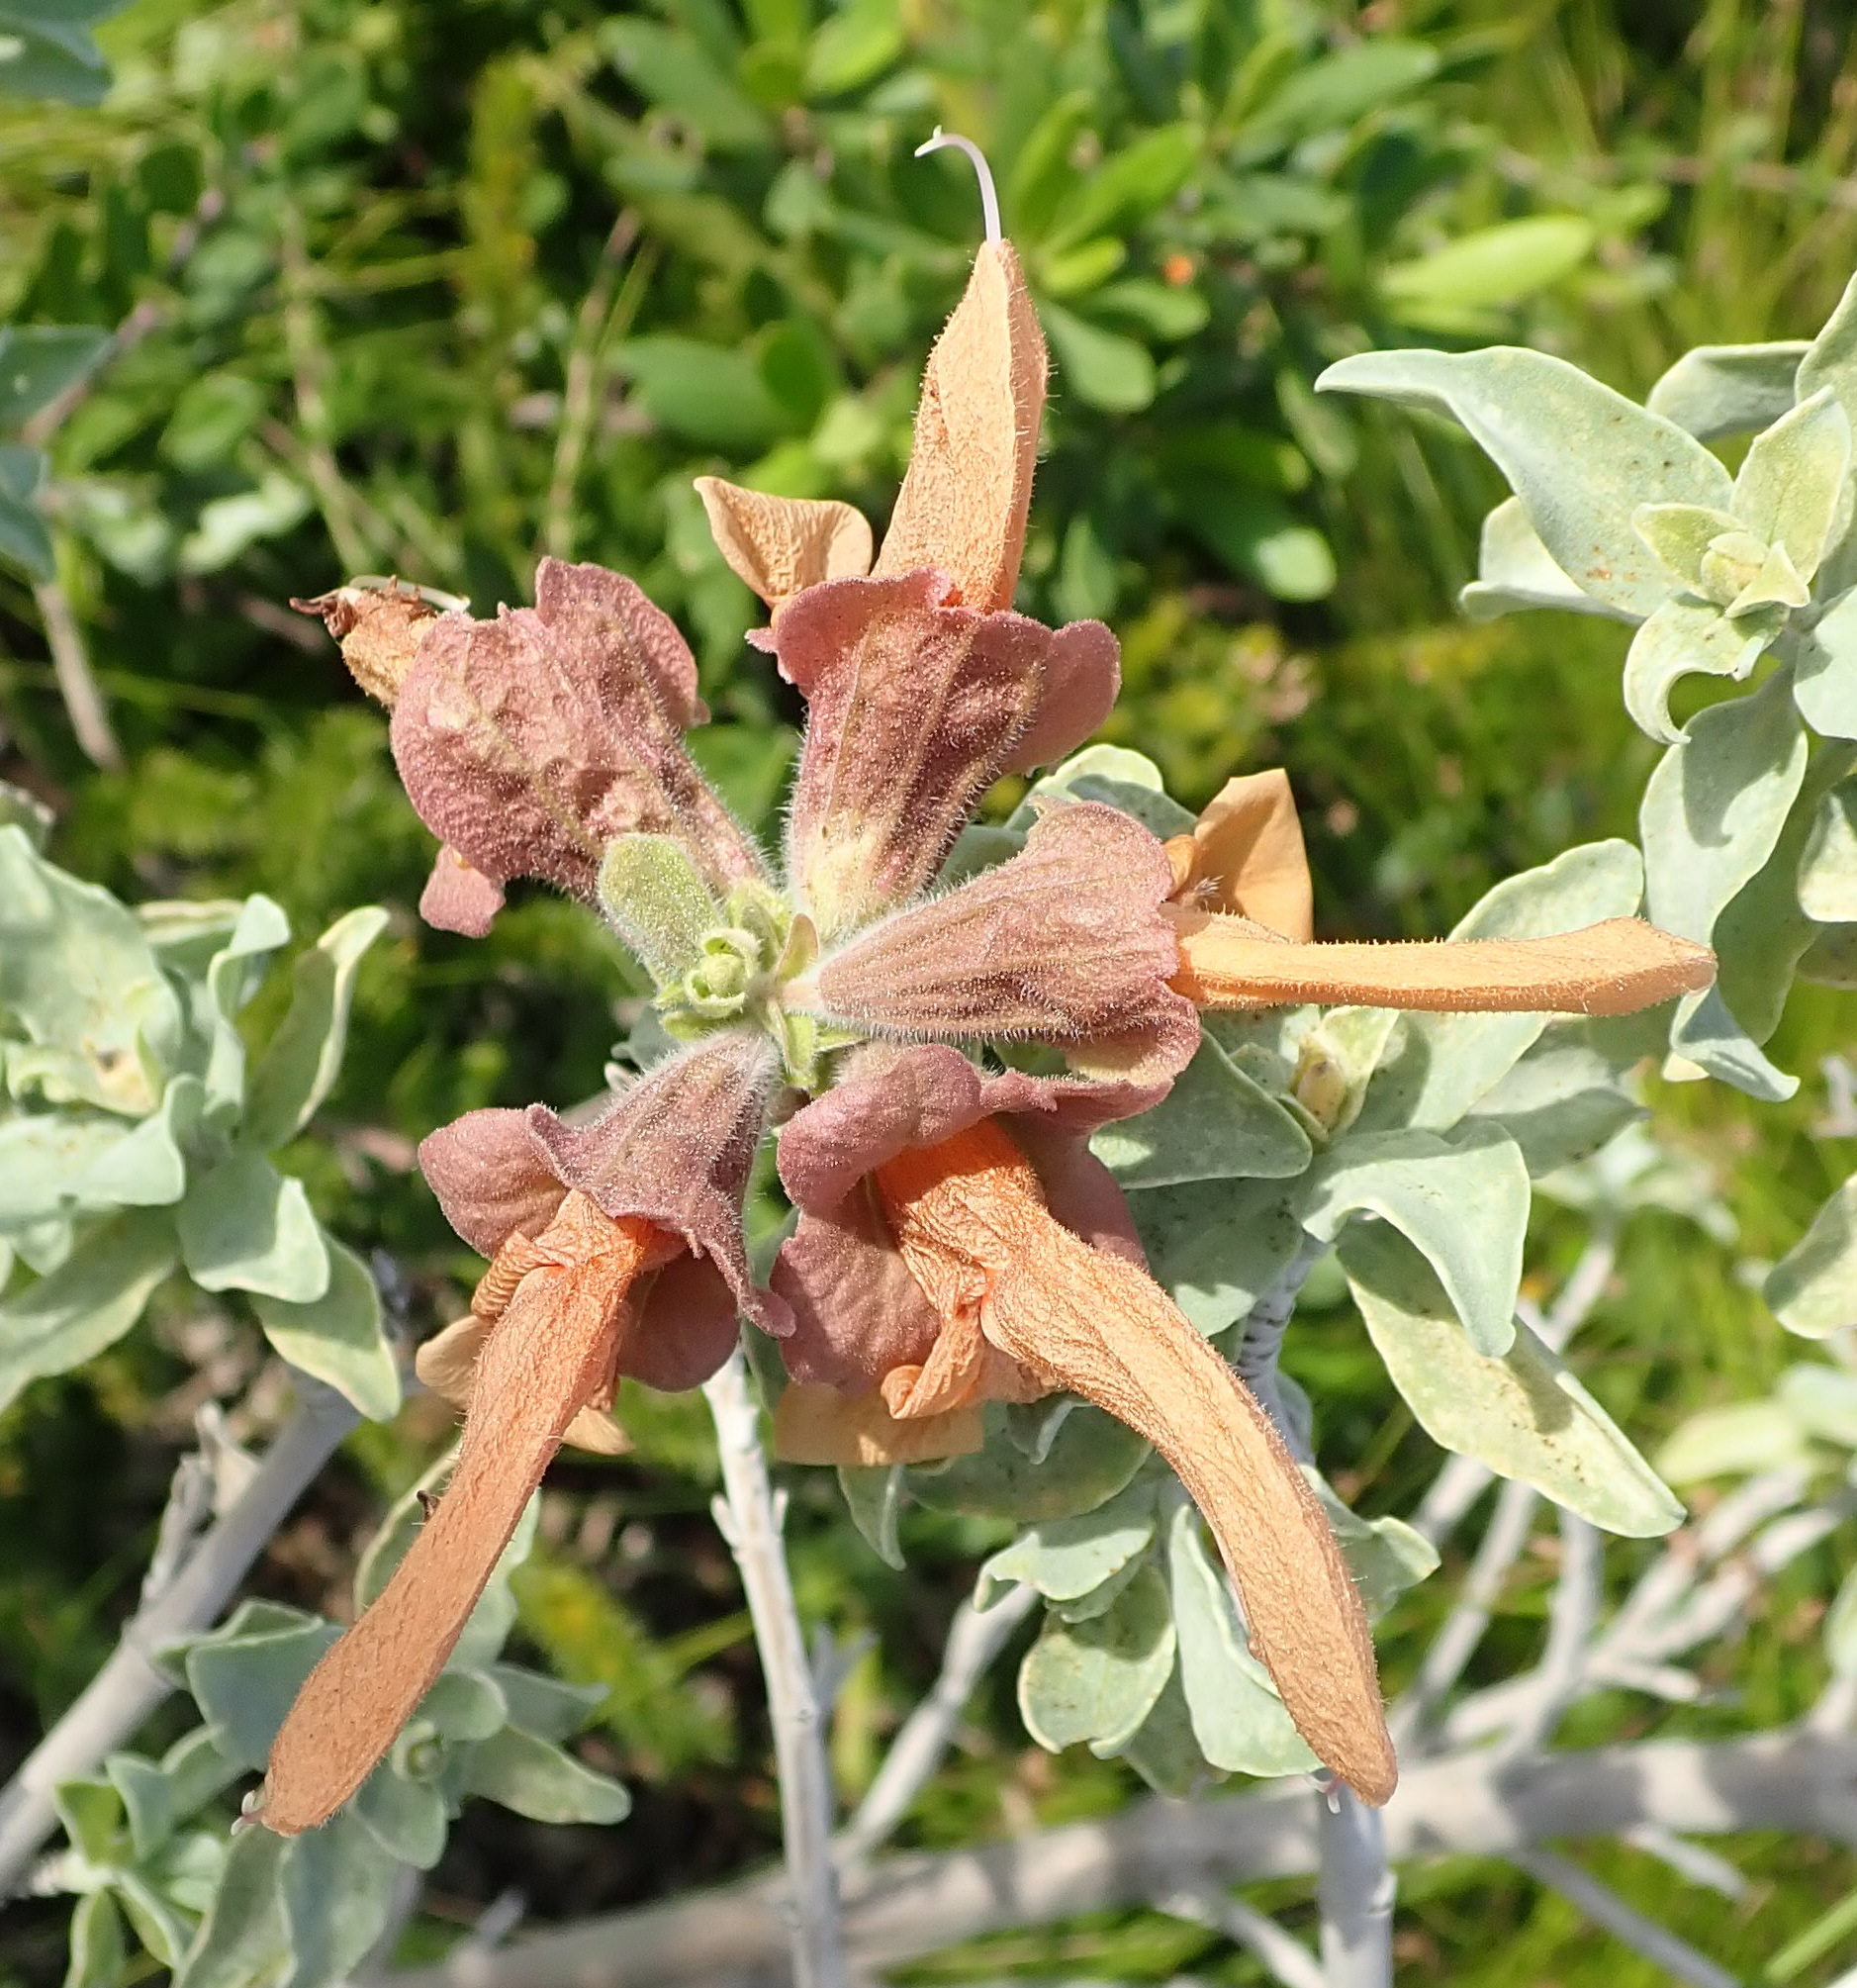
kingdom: Plantae
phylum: Tracheophyta
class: Magnoliopsida
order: Lamiales
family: Lamiaceae
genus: Salvia
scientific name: Salvia aurea
